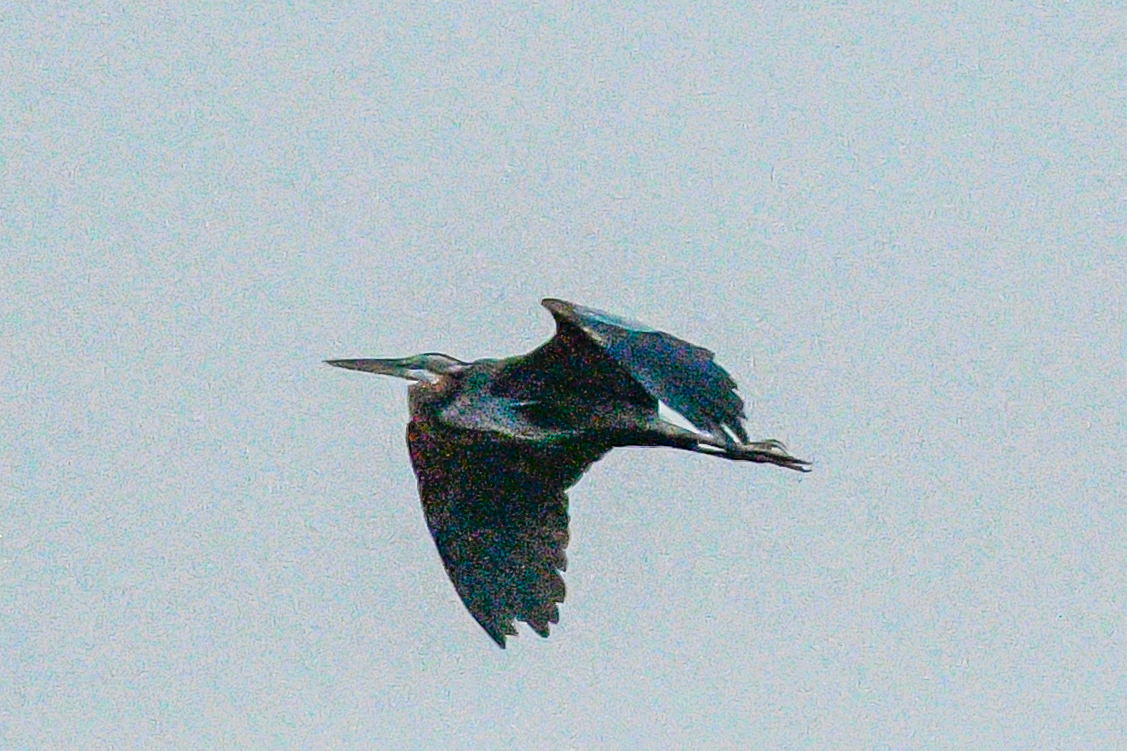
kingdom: Animalia
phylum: Chordata
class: Aves
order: Pelecaniformes
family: Ardeidae
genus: Ardea
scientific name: Ardea purpurea
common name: Purple heron
